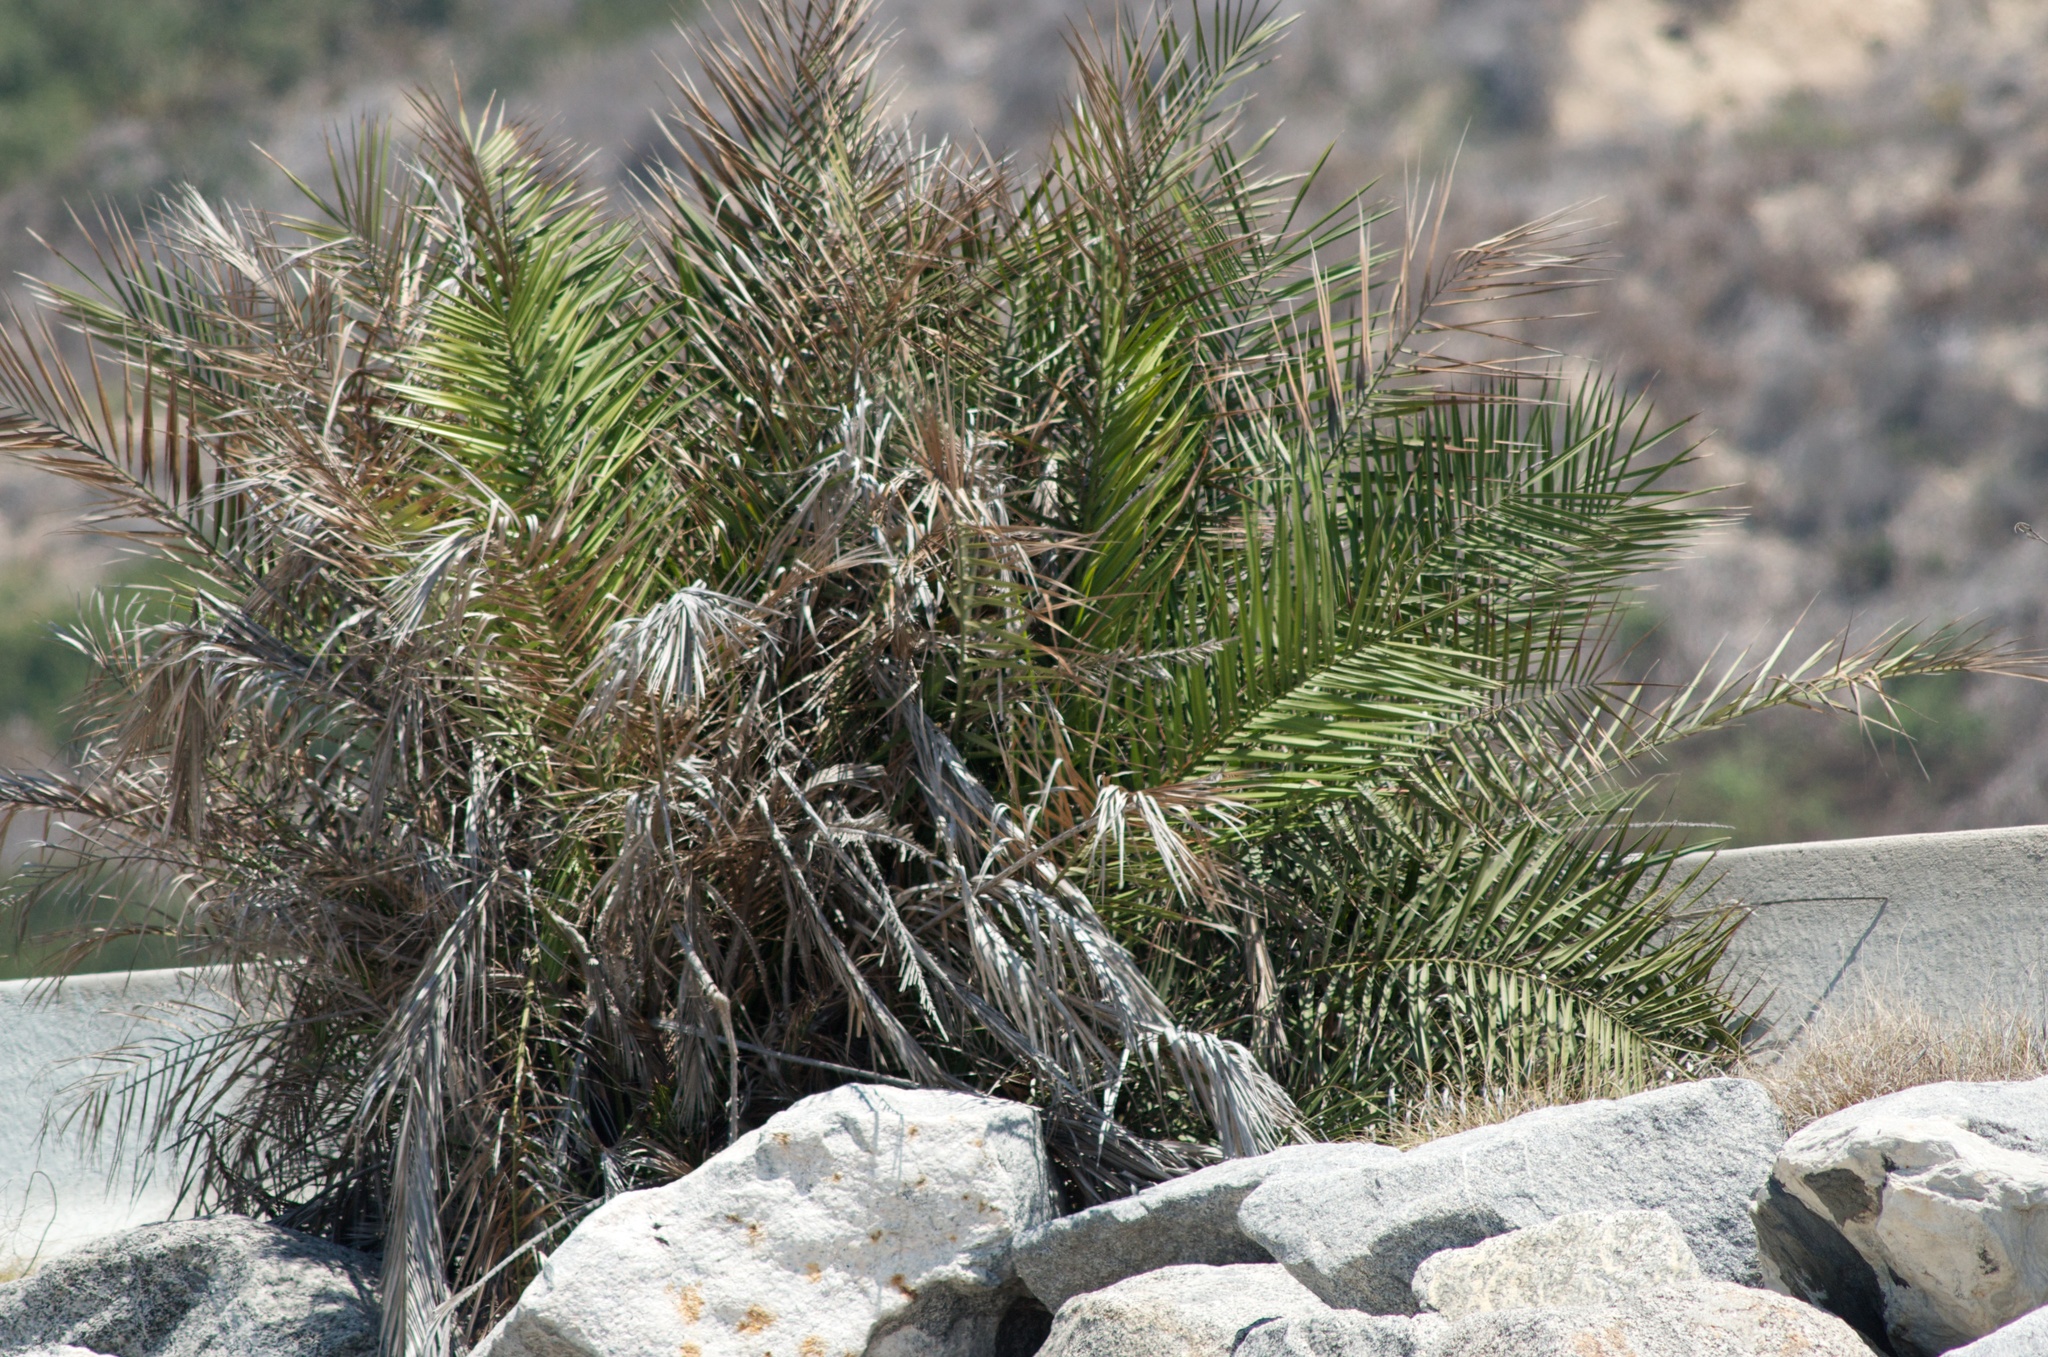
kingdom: Plantae
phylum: Tracheophyta
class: Liliopsida
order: Arecales
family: Arecaceae
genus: Phoenix
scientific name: Phoenix canariensis
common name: Canary island date palm
